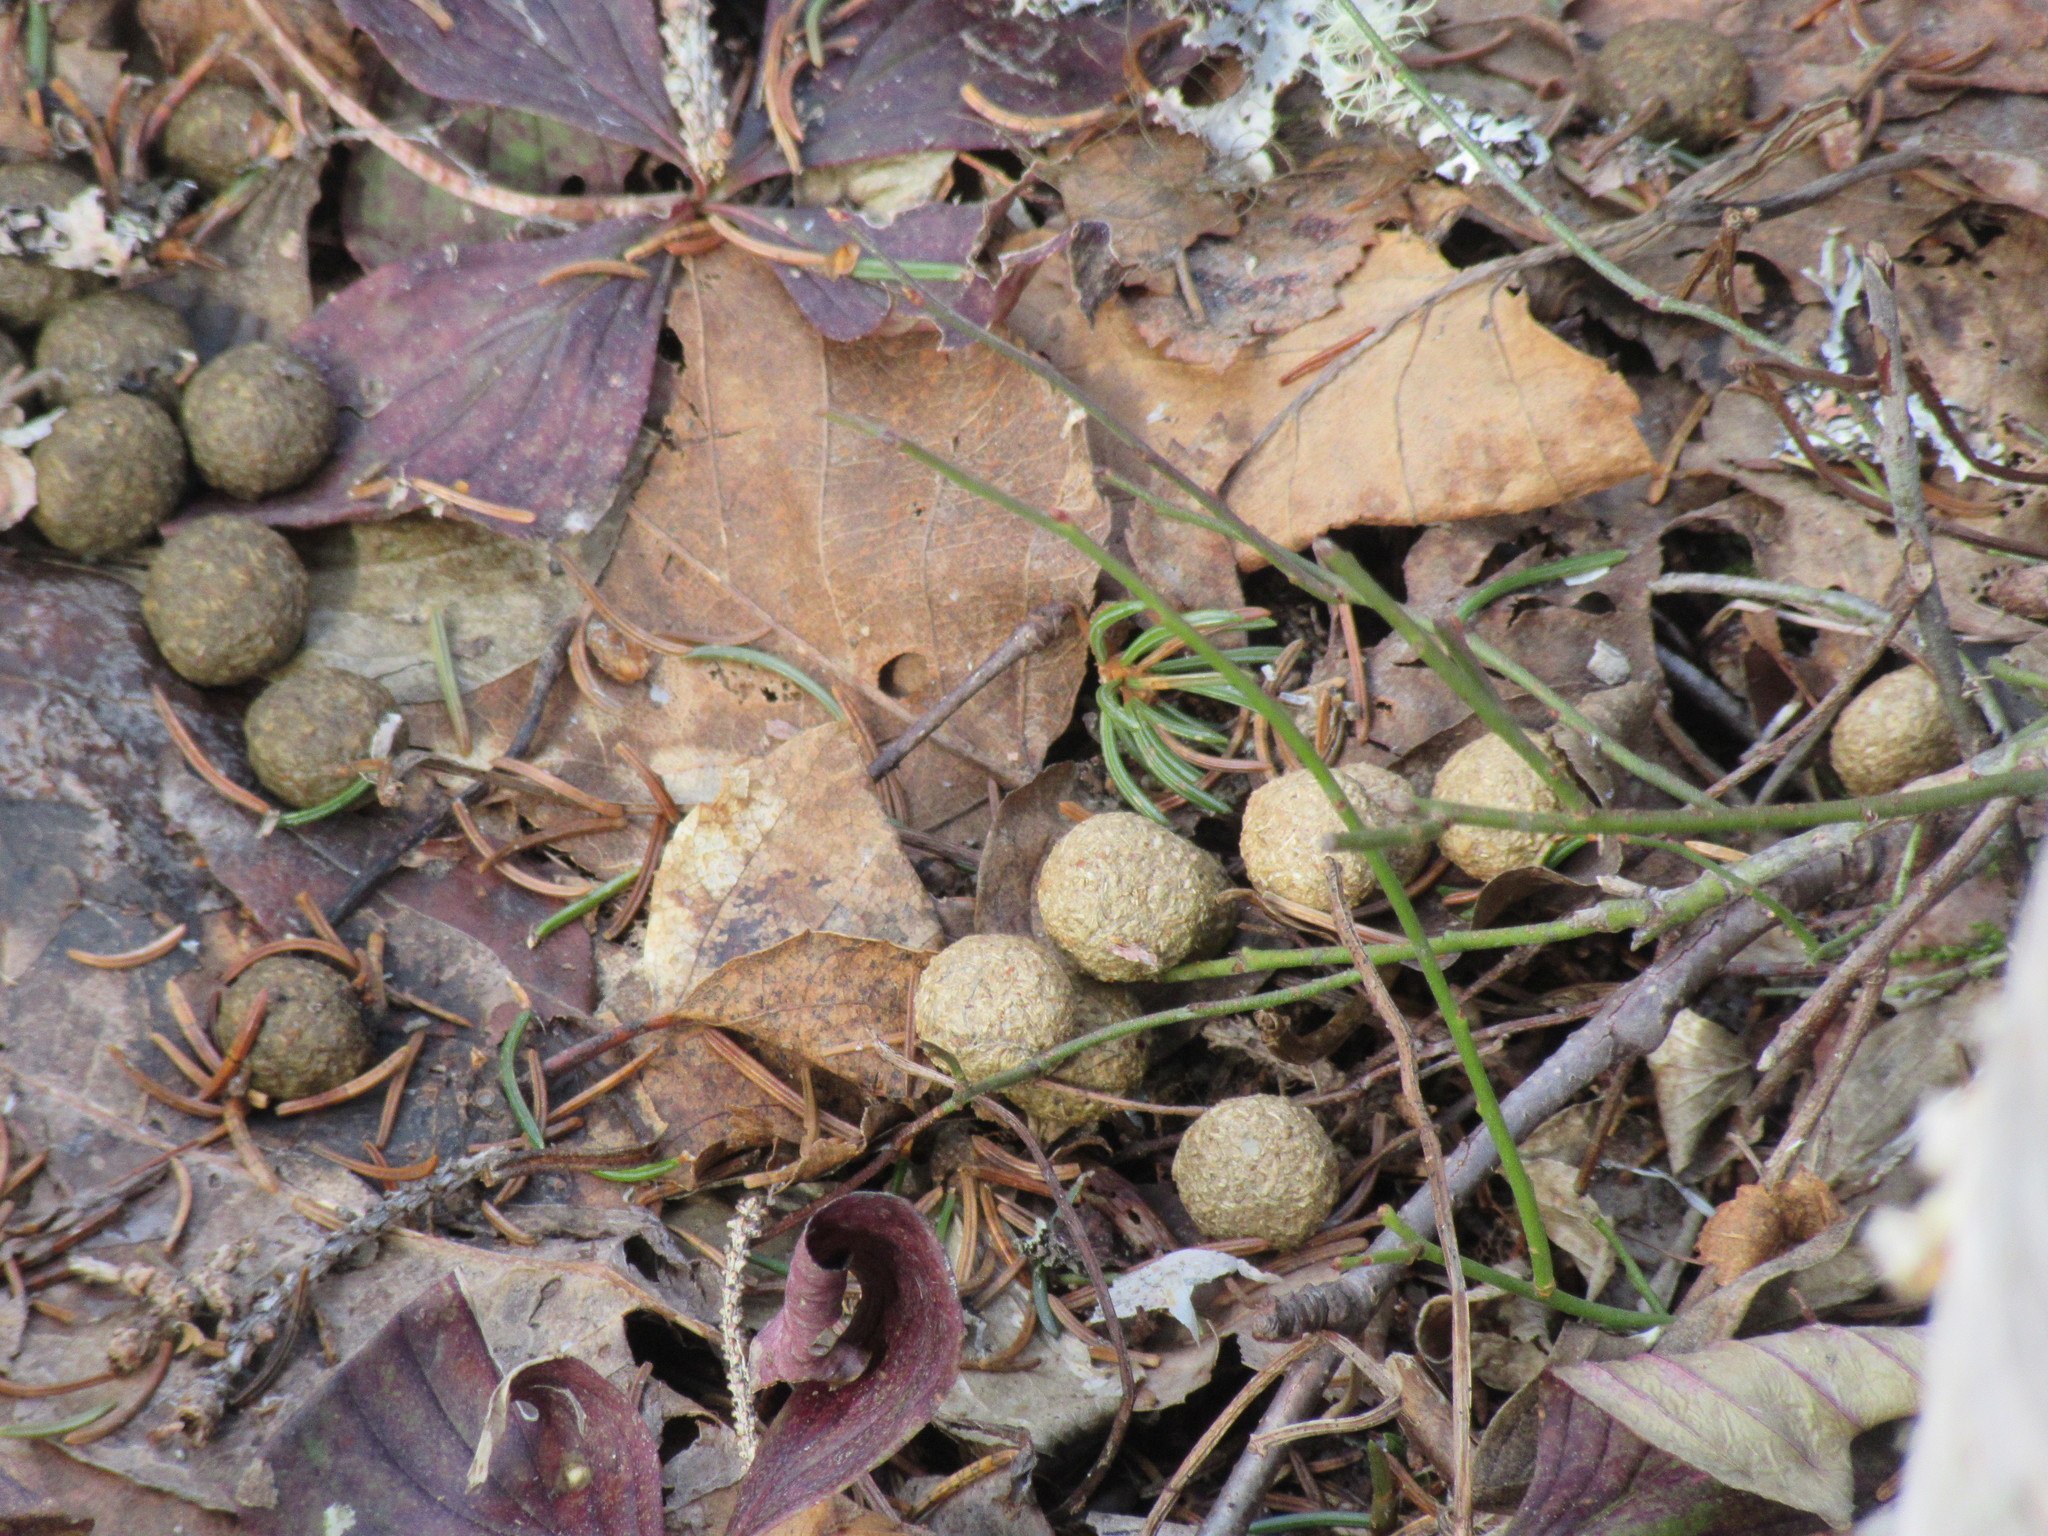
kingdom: Animalia
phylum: Chordata
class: Mammalia
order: Lagomorpha
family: Leporidae
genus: Lepus
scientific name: Lepus americanus
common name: Snowshoe hare
